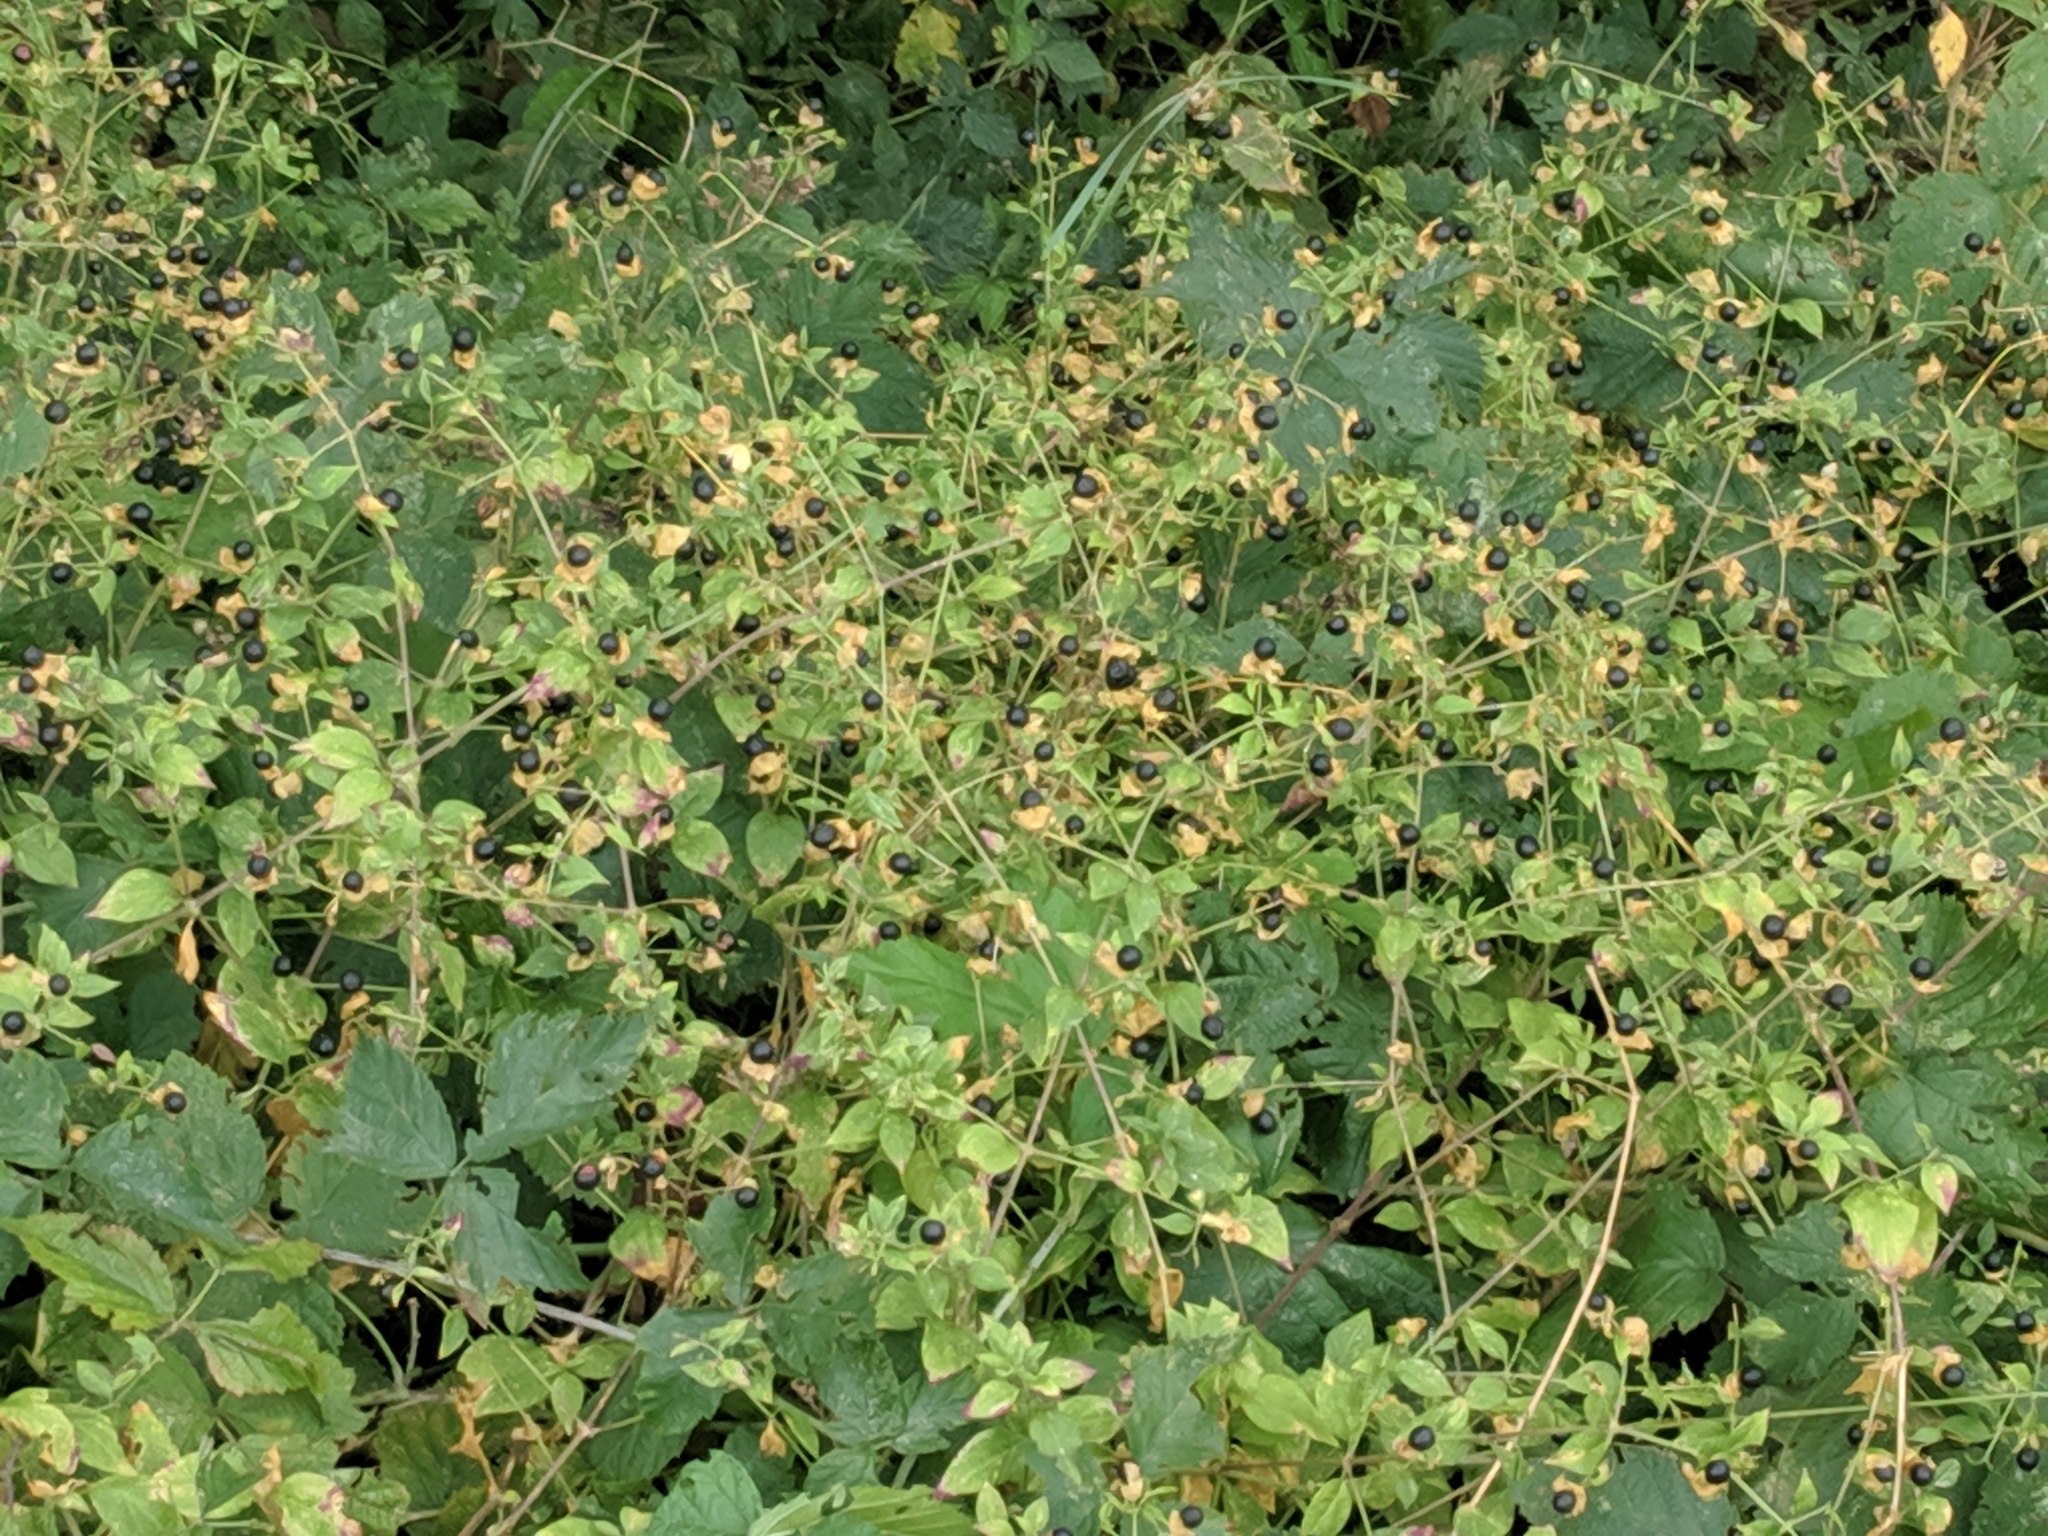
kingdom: Plantae
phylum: Tracheophyta
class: Magnoliopsida
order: Caryophyllales
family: Caryophyllaceae
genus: Silene
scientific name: Silene baccifera
